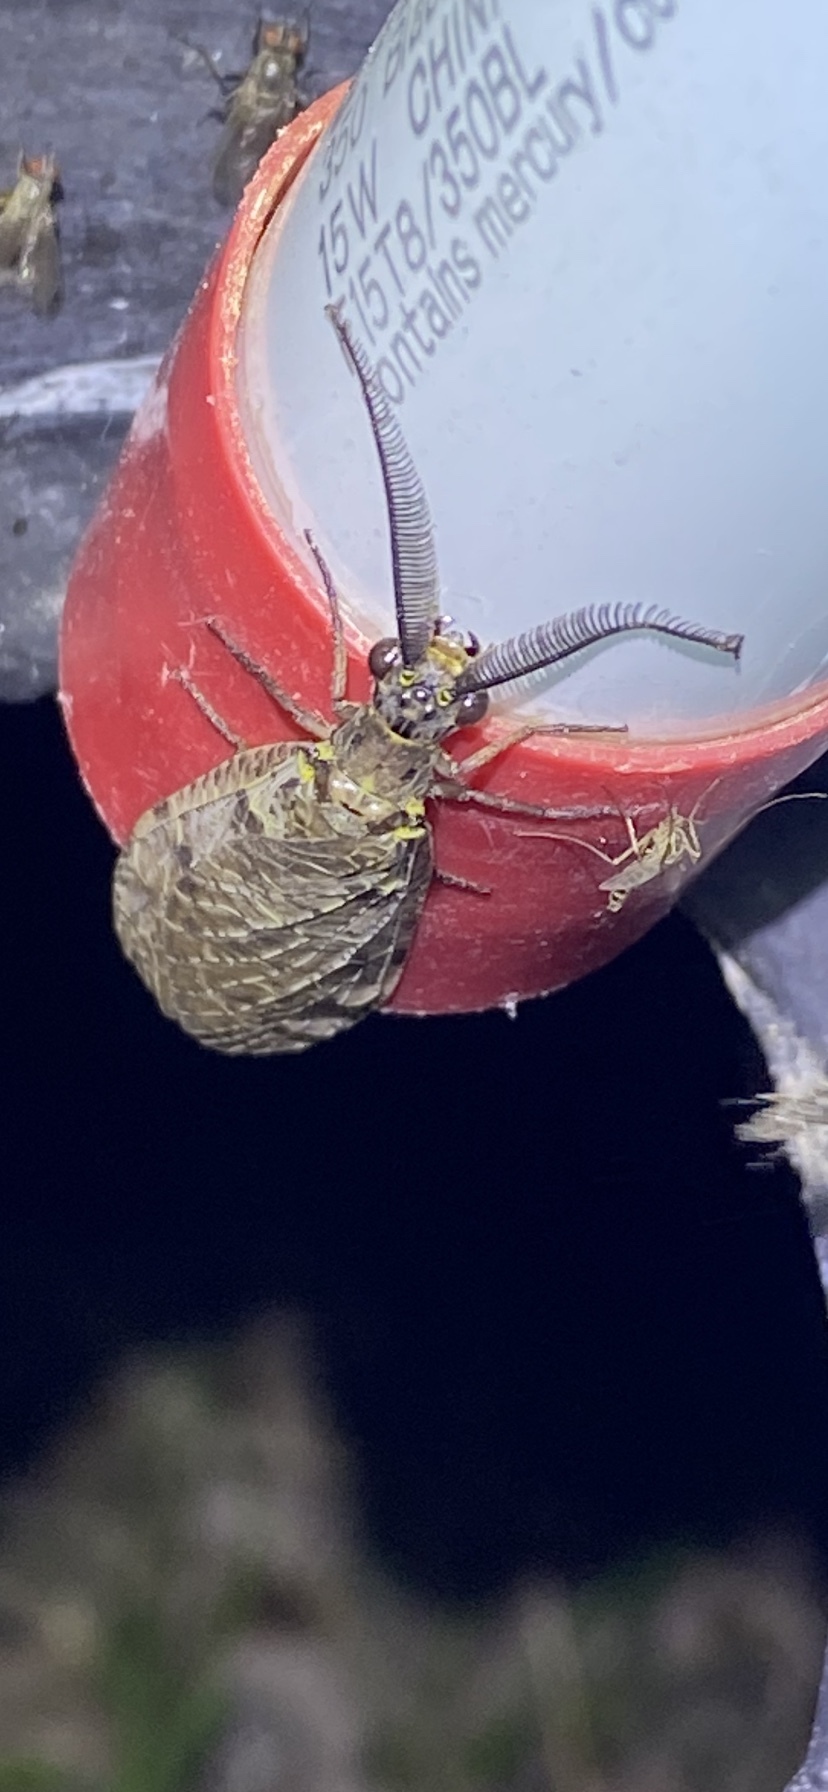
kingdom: Animalia
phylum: Arthropoda
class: Insecta
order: Megaloptera
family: Corydalidae
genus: Chauliodes
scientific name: Chauliodes rastricornis
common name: Spring fishfly
